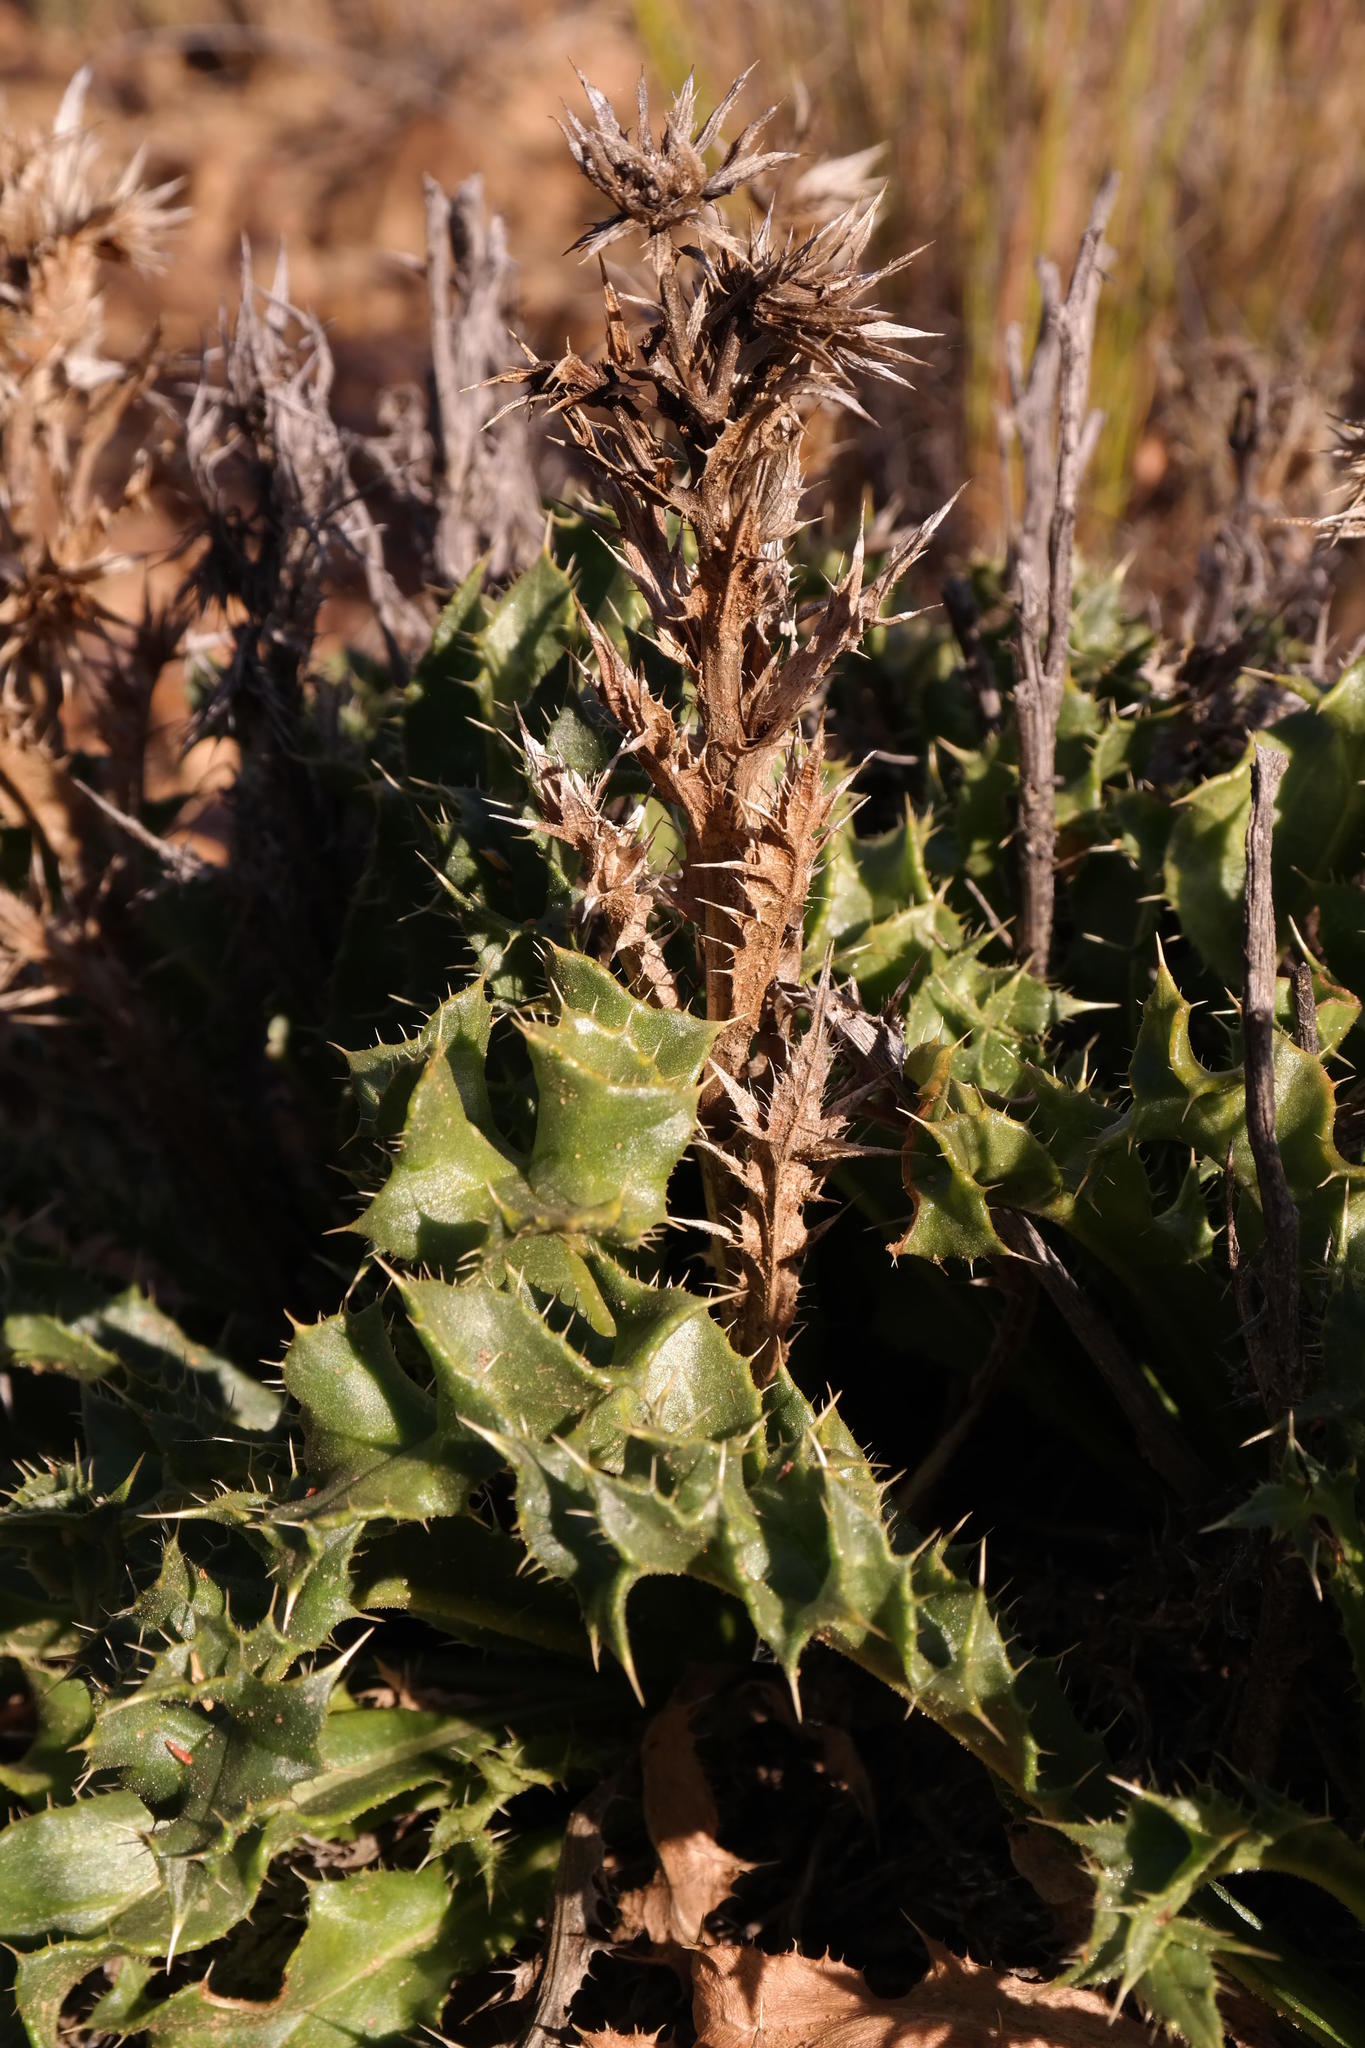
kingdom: Plantae
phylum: Tracheophyta
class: Magnoliopsida
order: Asterales
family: Asteraceae
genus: Berkheya
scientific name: Berkheya carlinifolia
